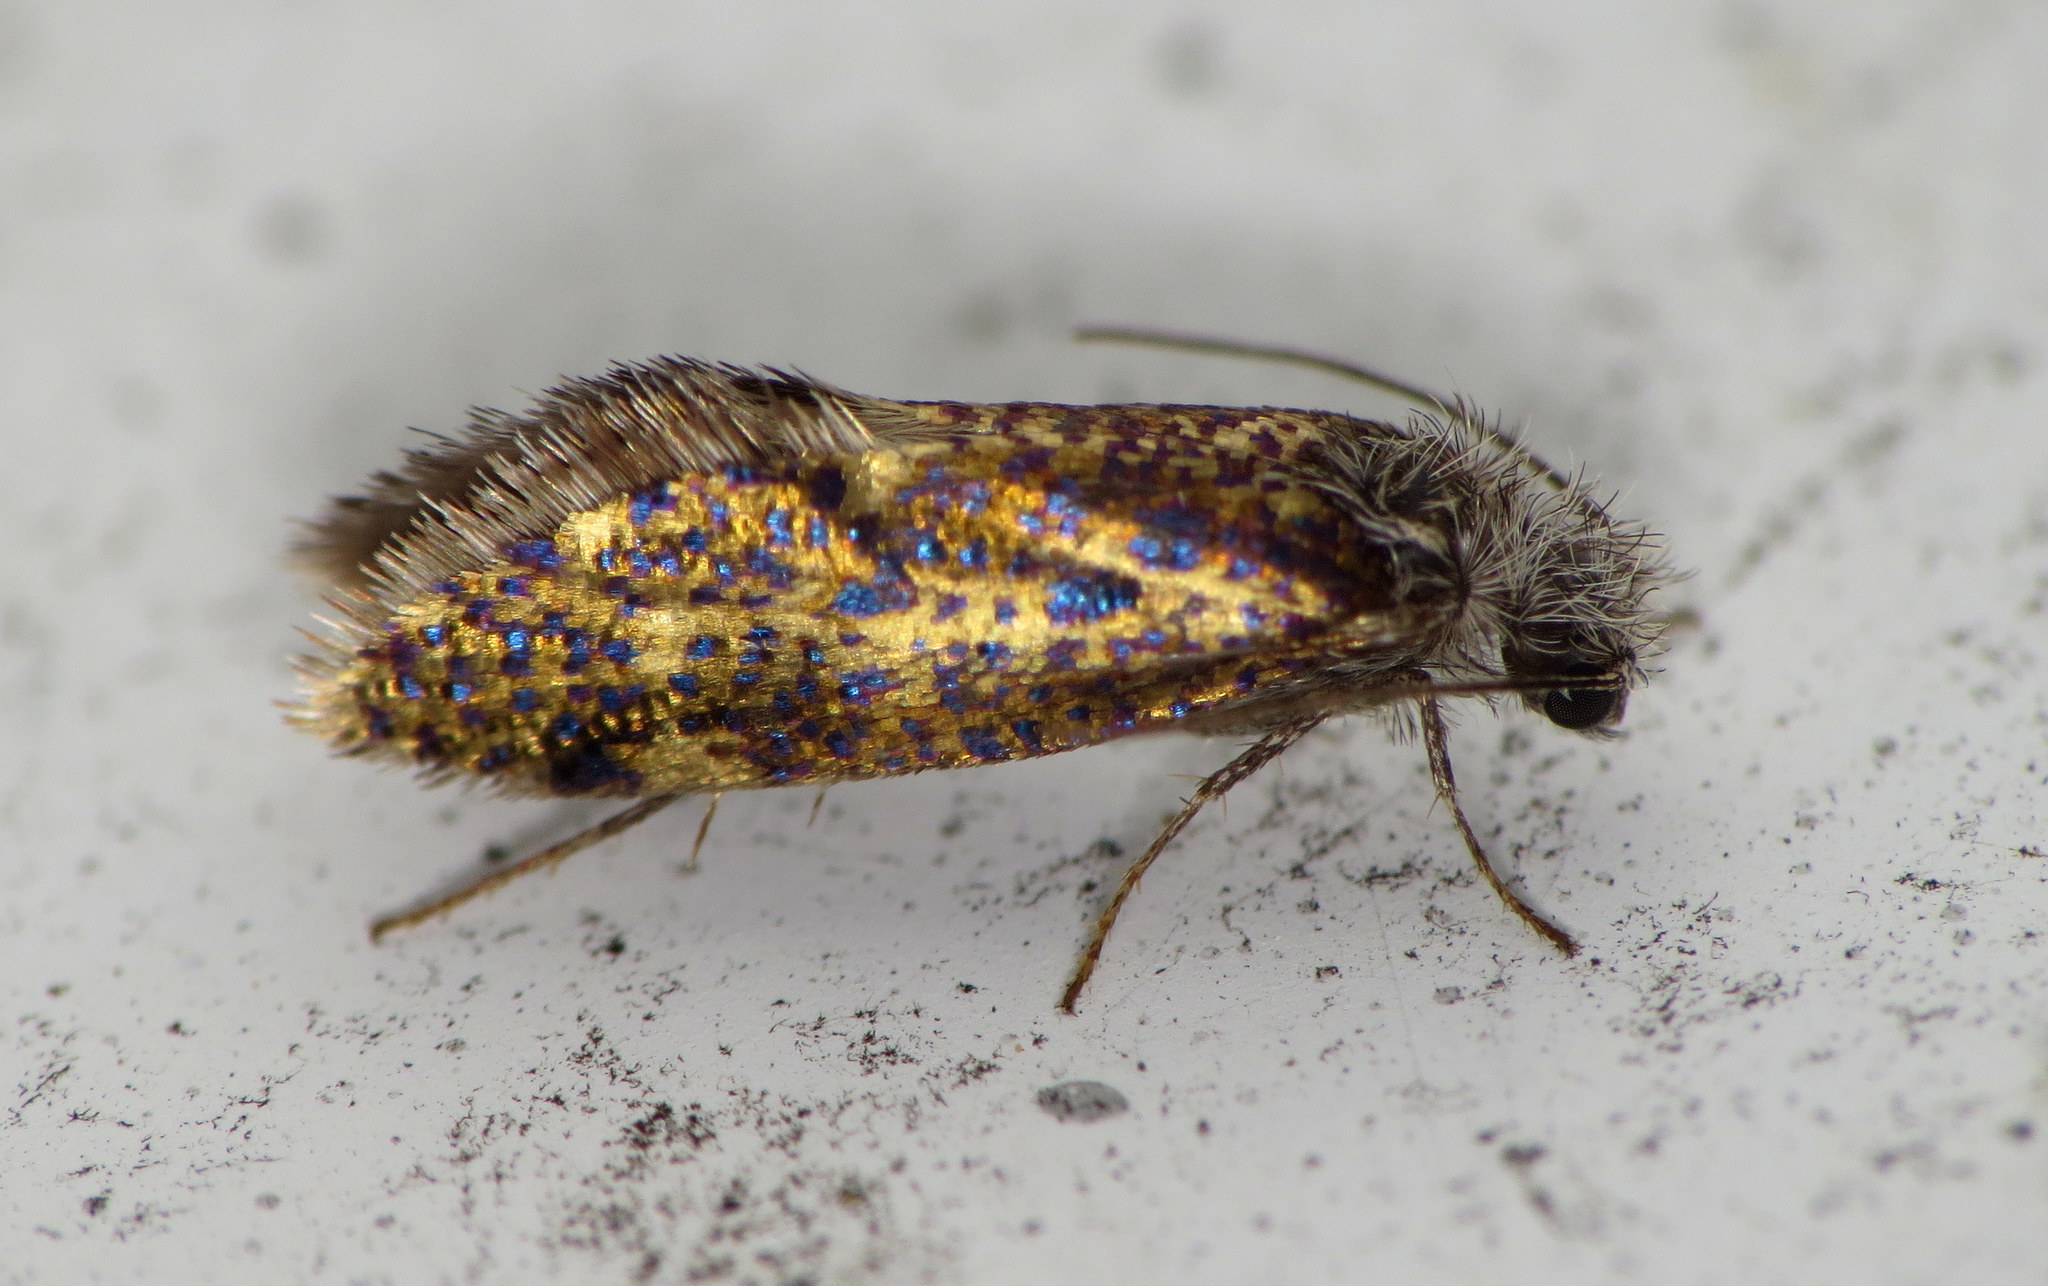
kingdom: Animalia
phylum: Arthropoda
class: Insecta
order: Lepidoptera
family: Eriocraniidae
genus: Dyseriocrania
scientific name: Dyseriocrania griseocapitella
